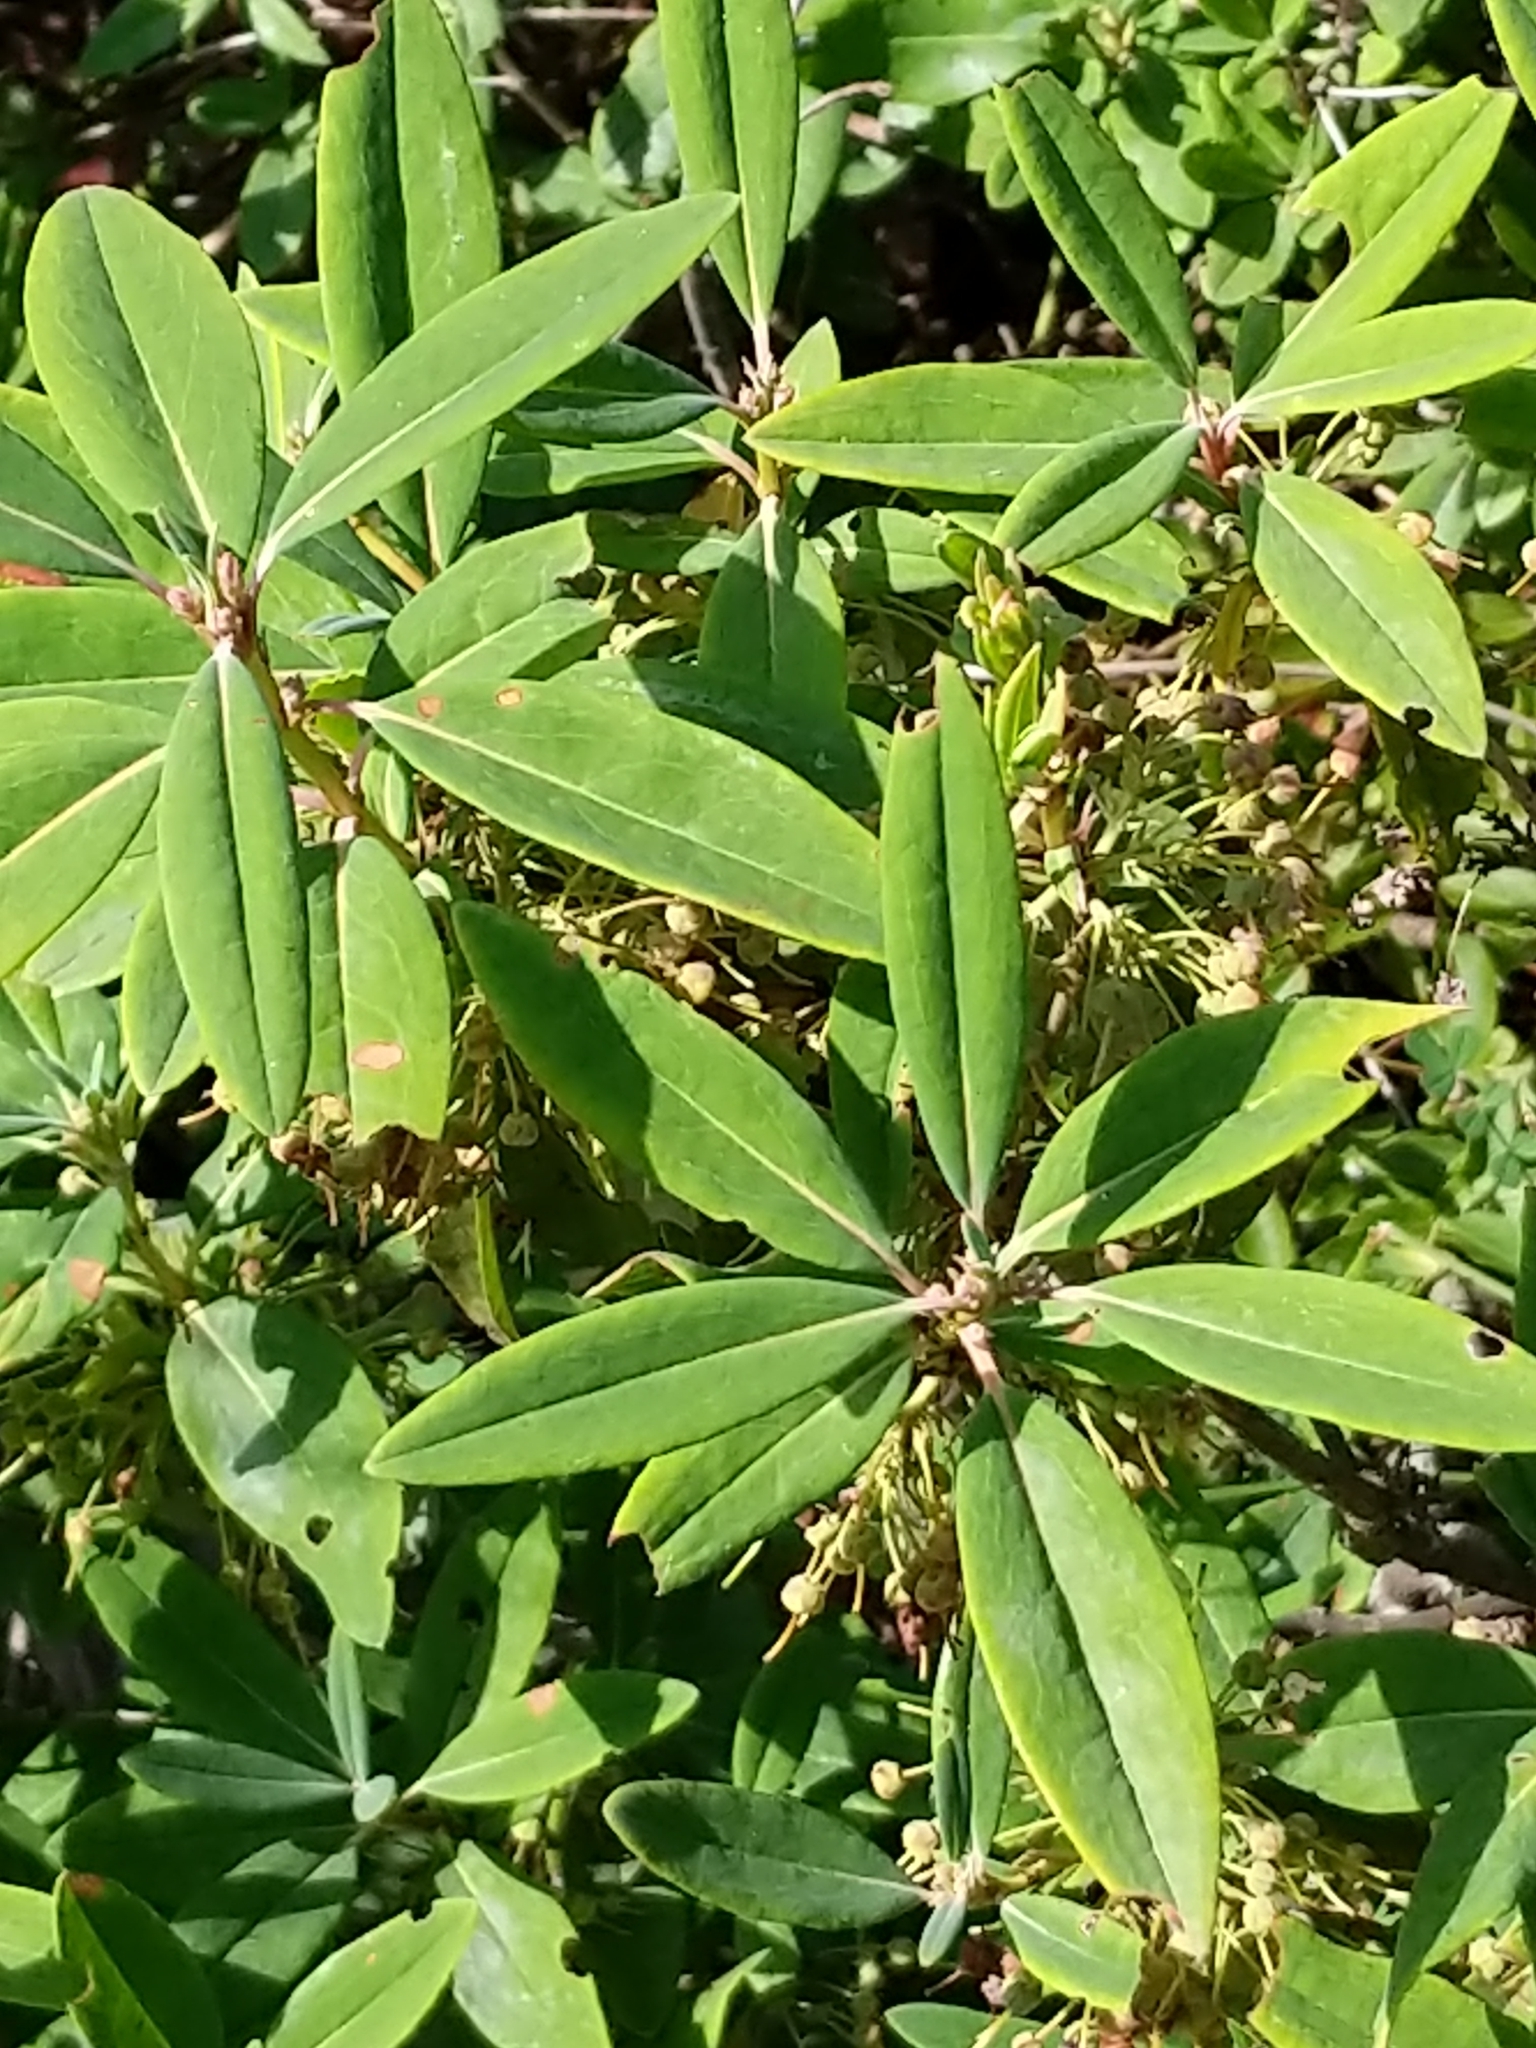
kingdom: Plantae
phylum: Tracheophyta
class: Magnoliopsida
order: Ericales
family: Ericaceae
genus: Kalmia
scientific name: Kalmia angustifolia
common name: Sheep-laurel
